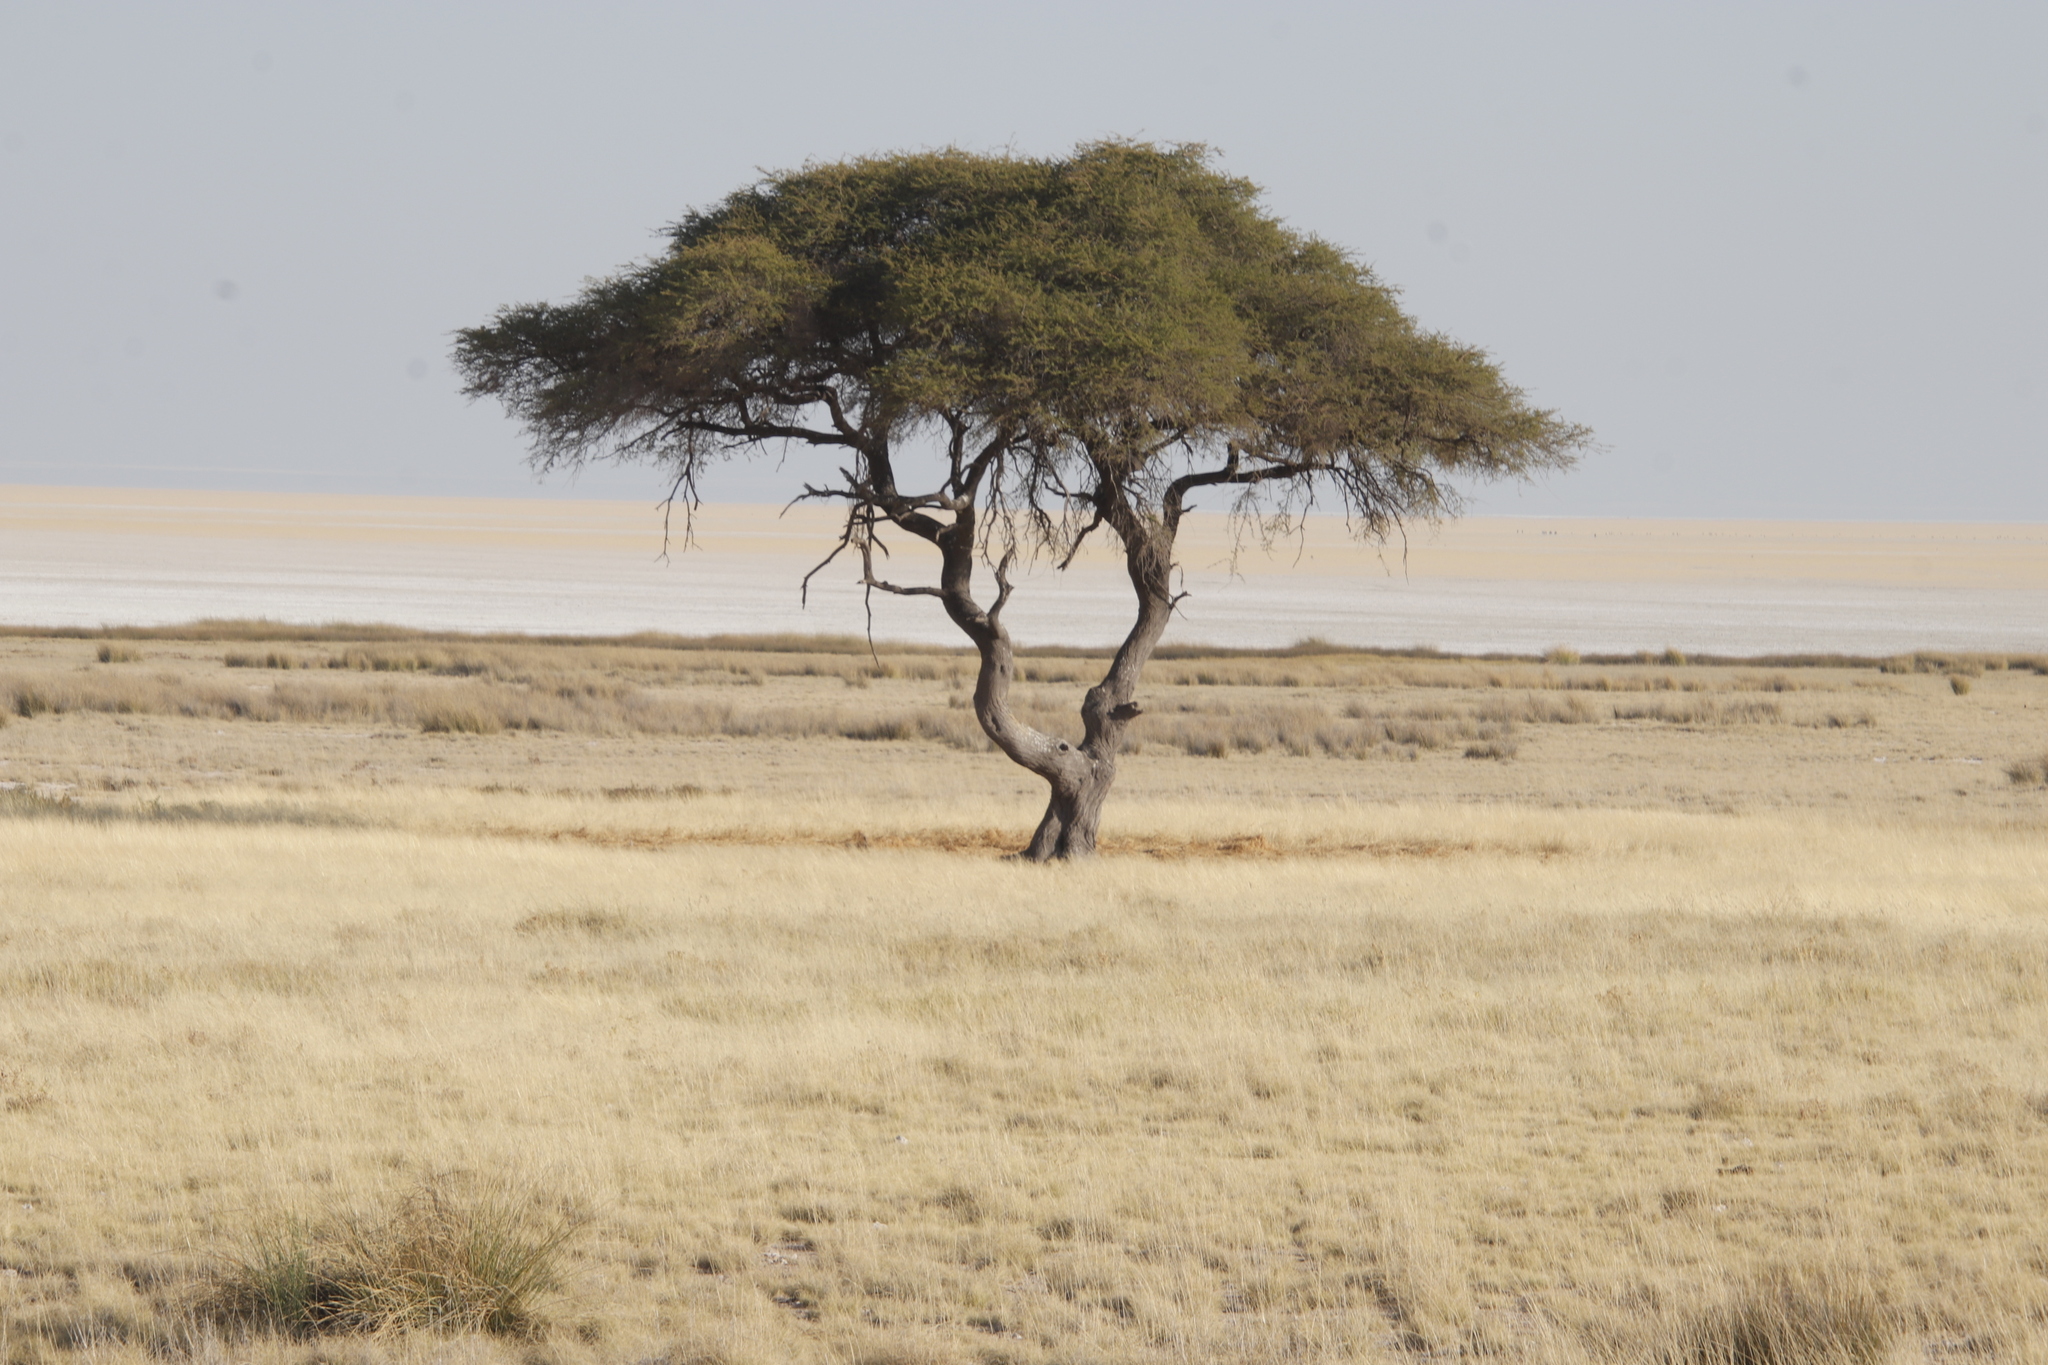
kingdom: Plantae
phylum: Tracheophyta
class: Magnoliopsida
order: Fabales
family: Fabaceae
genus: Vachellia
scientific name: Vachellia tortilis
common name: Umbrella thorn acacia
